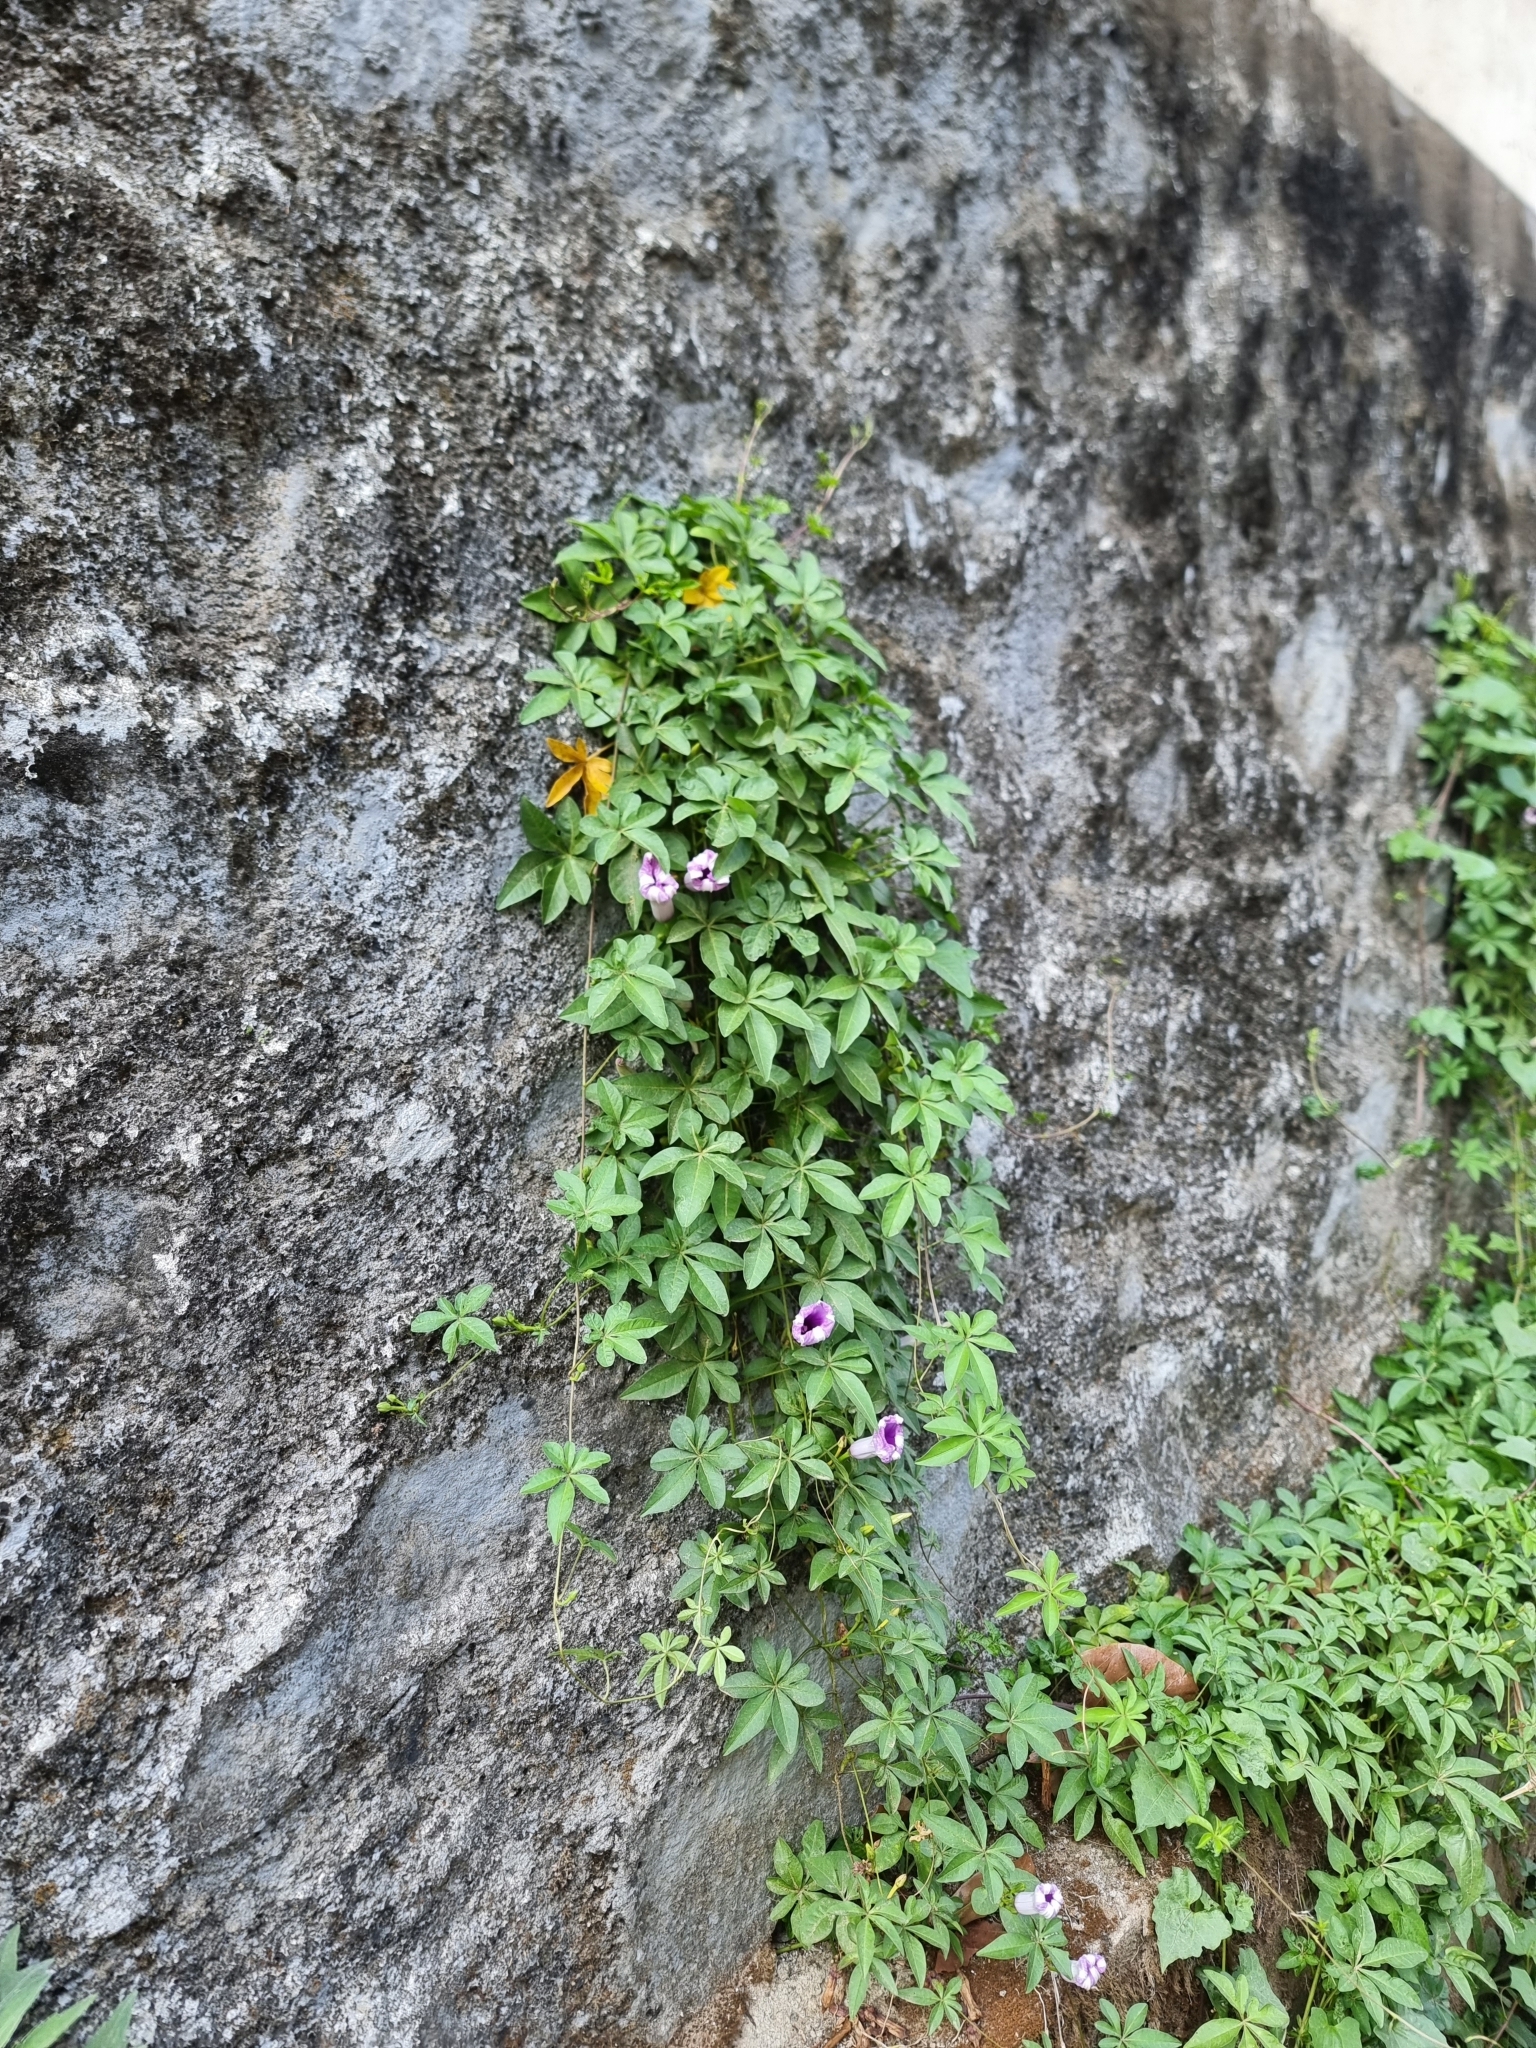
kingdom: Plantae
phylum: Tracheophyta
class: Magnoliopsida
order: Solanales
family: Convolvulaceae
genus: Ipomoea
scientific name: Ipomoea cairica
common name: Mile a minute vine
